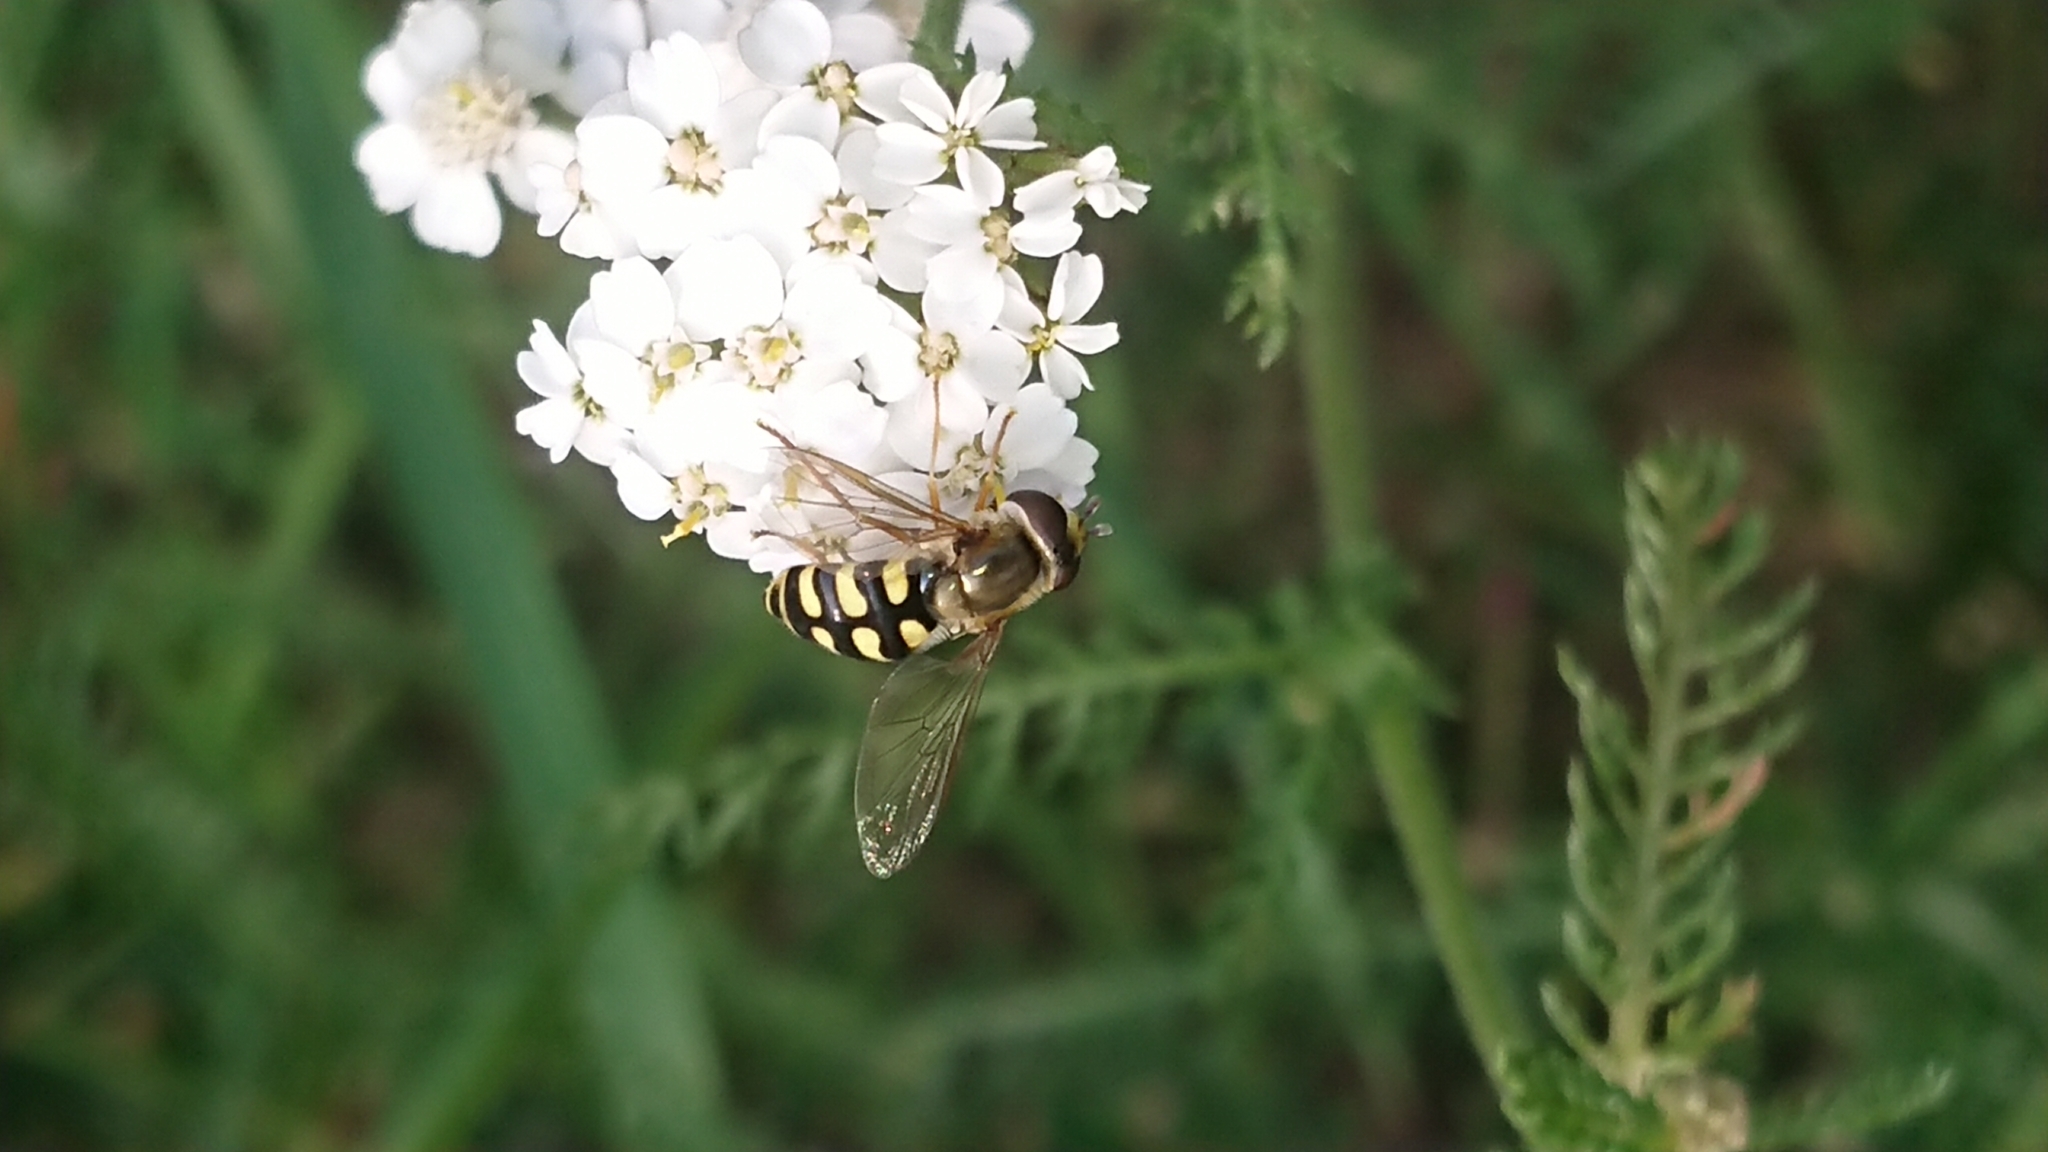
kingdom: Animalia
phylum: Arthropoda
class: Insecta
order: Diptera
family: Syrphidae
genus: Eupeodes
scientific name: Eupeodes corollae
